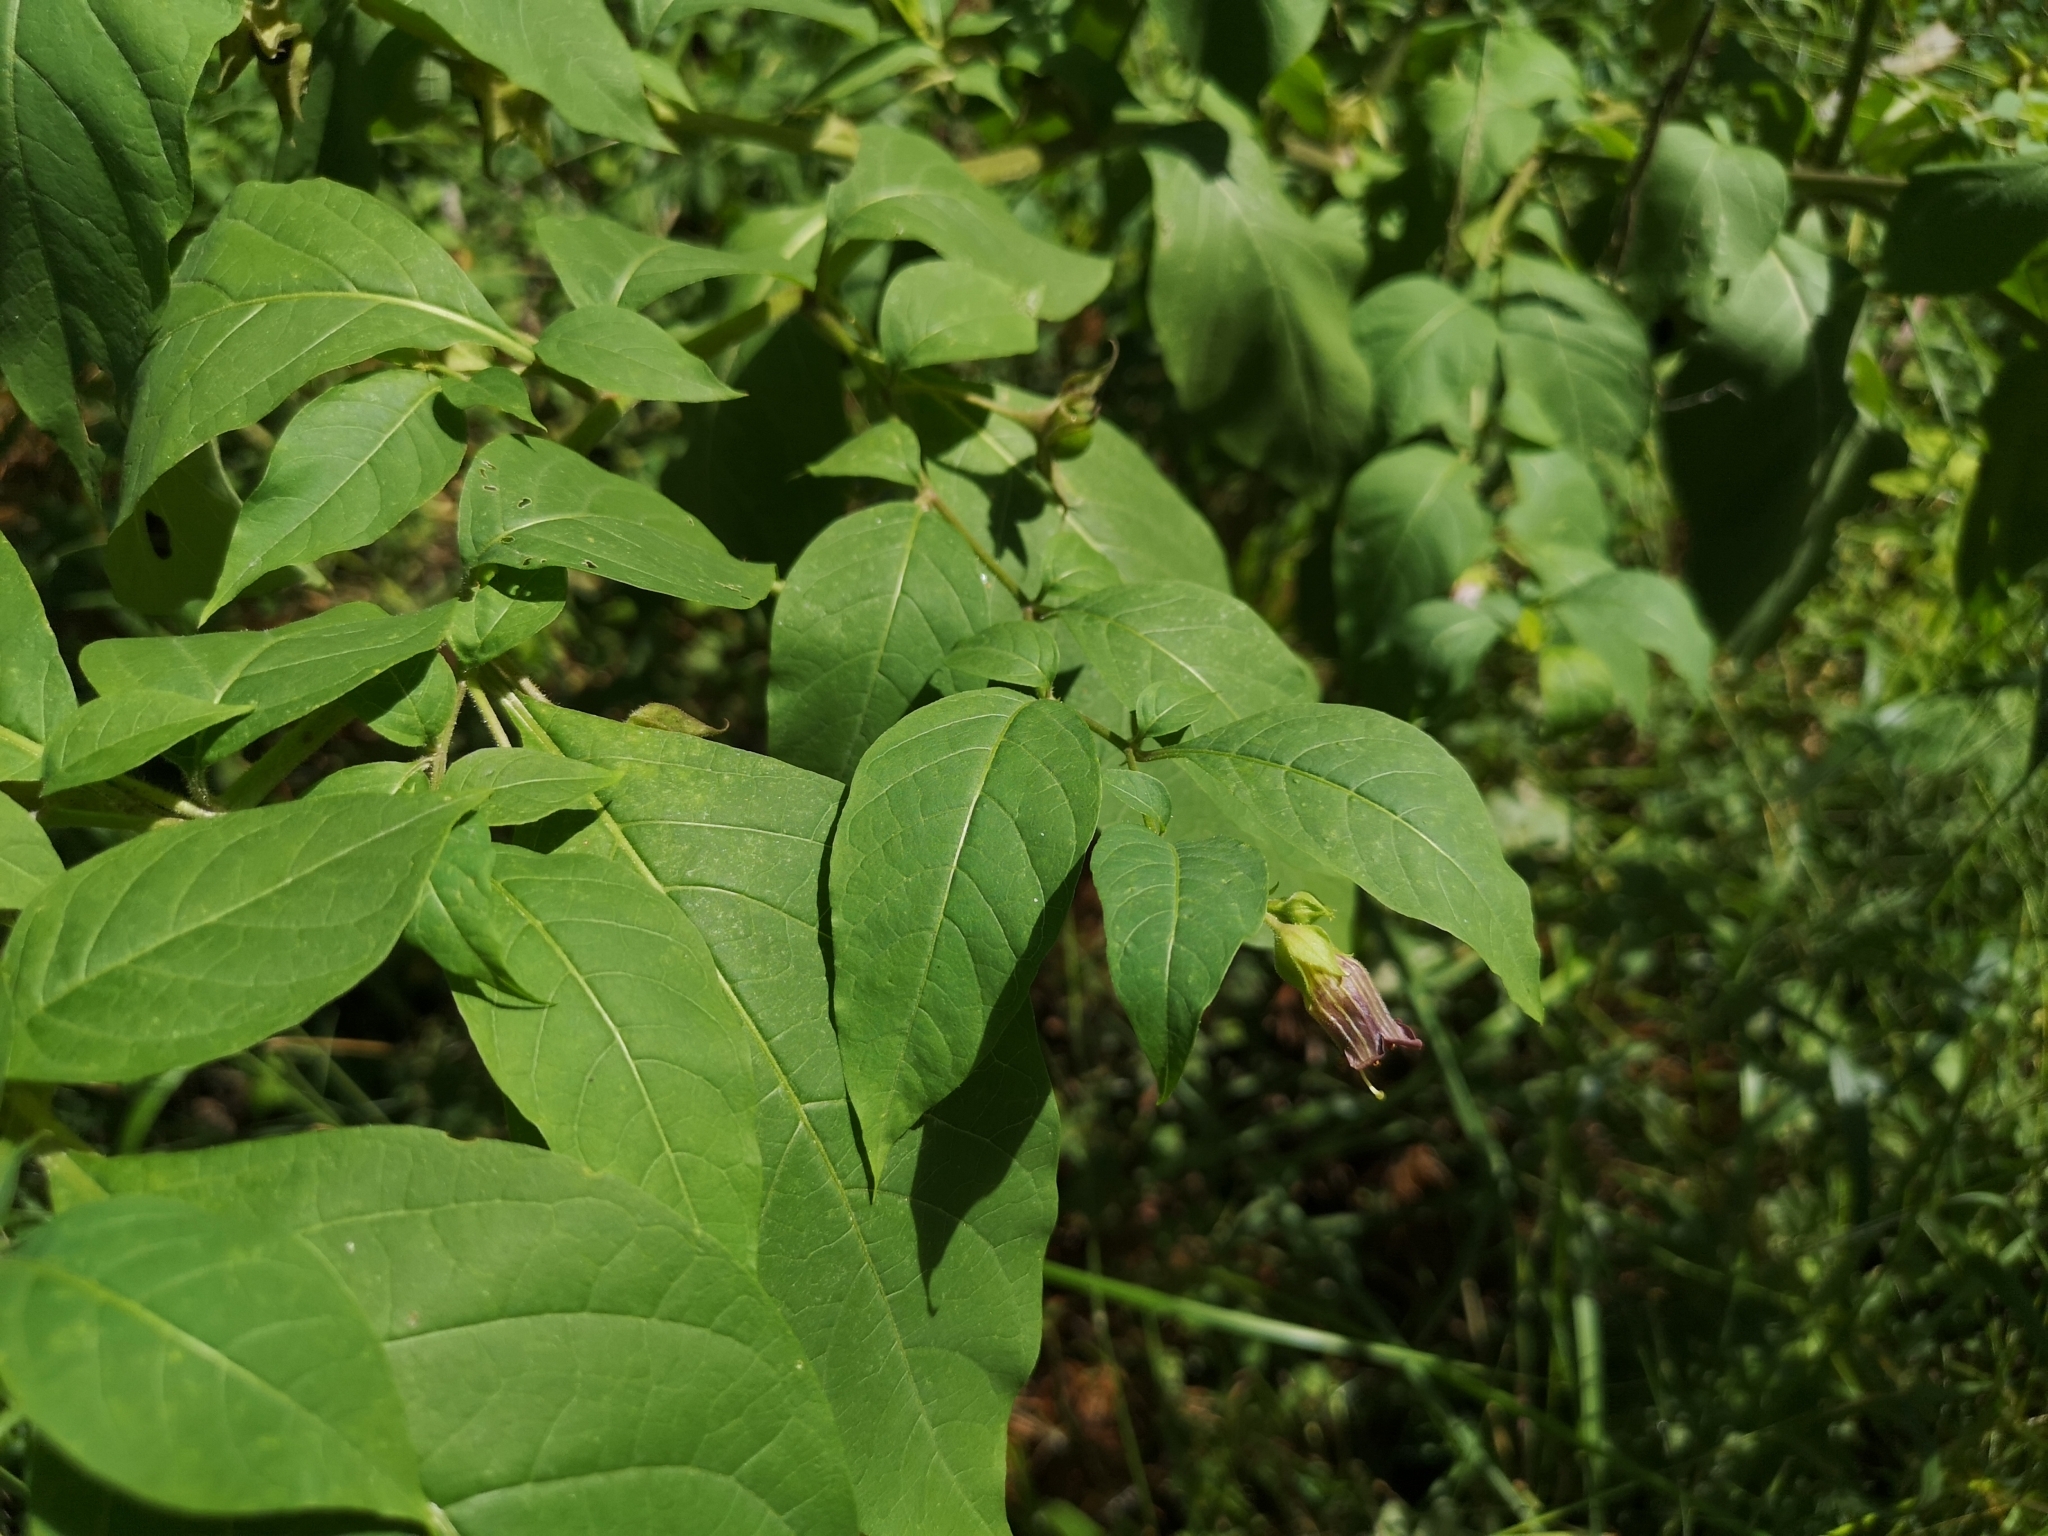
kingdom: Plantae
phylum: Tracheophyta
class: Magnoliopsida
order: Solanales
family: Solanaceae
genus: Atropa
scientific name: Atropa belladonna
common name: Deadly nightshade
